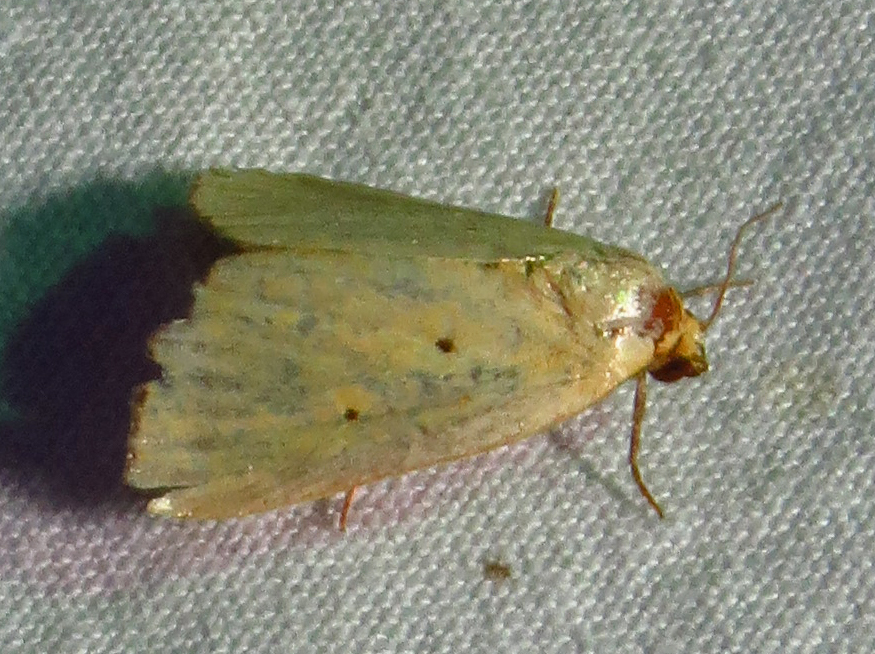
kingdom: Animalia
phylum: Arthropoda
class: Insecta
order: Lepidoptera
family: Noctuidae
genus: Marimatha
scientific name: Marimatha nigrofimbria
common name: Black-bordered lemon moth
